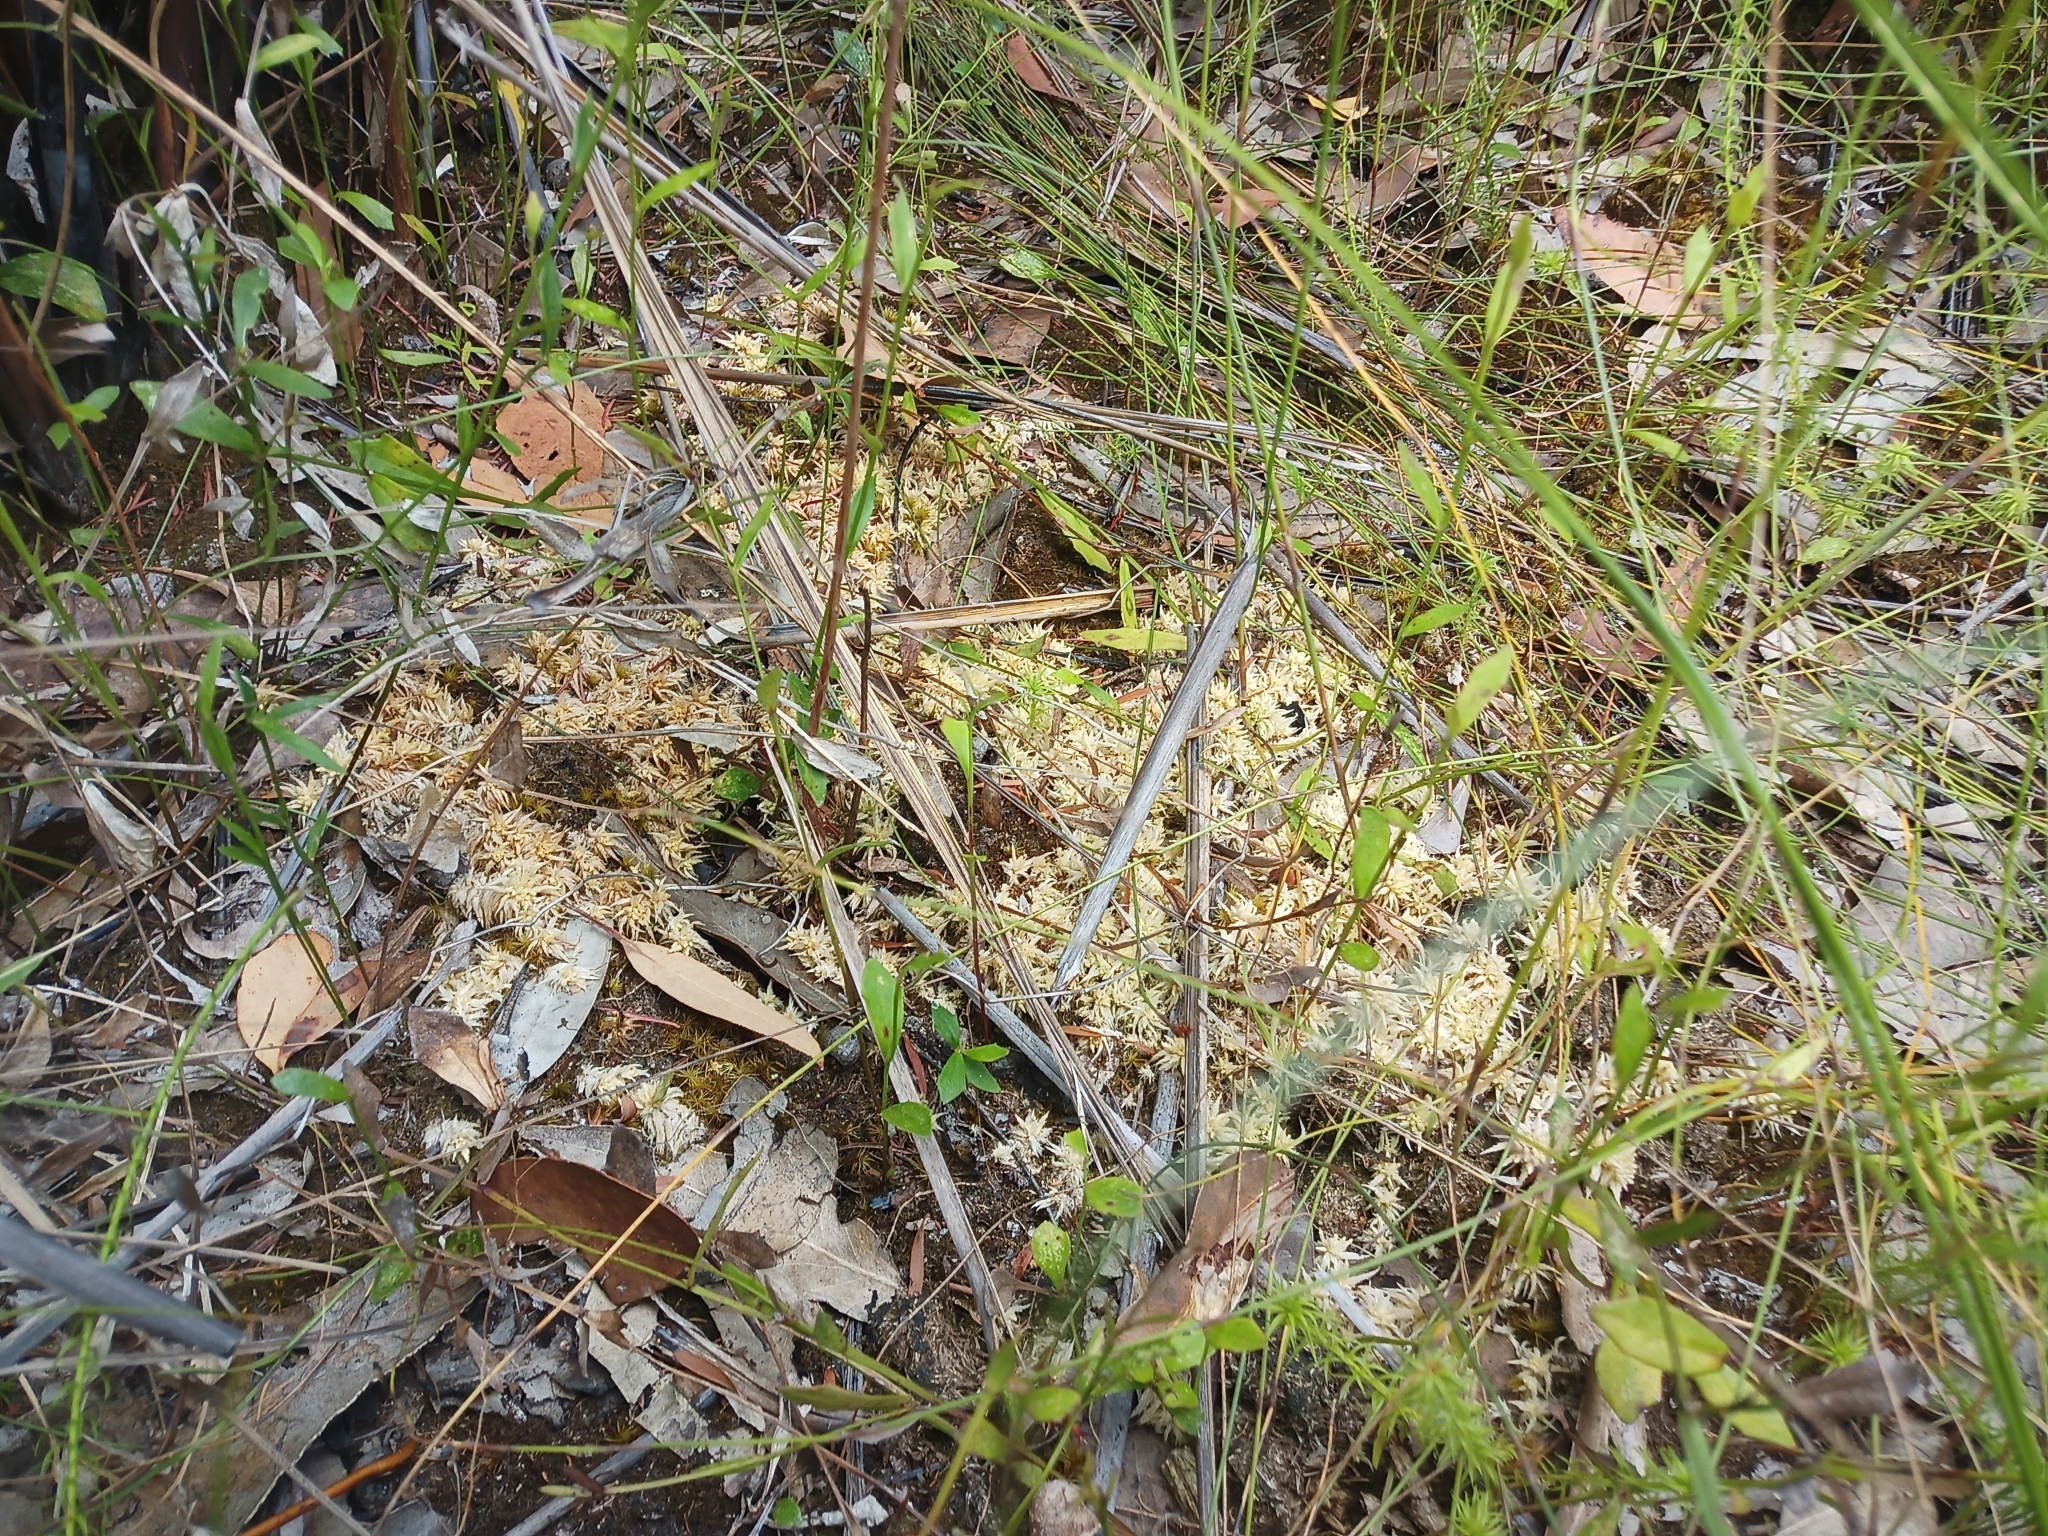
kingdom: Plantae
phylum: Bryophyta
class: Sphagnopsida
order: Sphagnales
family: Sphagnaceae
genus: Sphagnum
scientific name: Sphagnum novozelandicum
